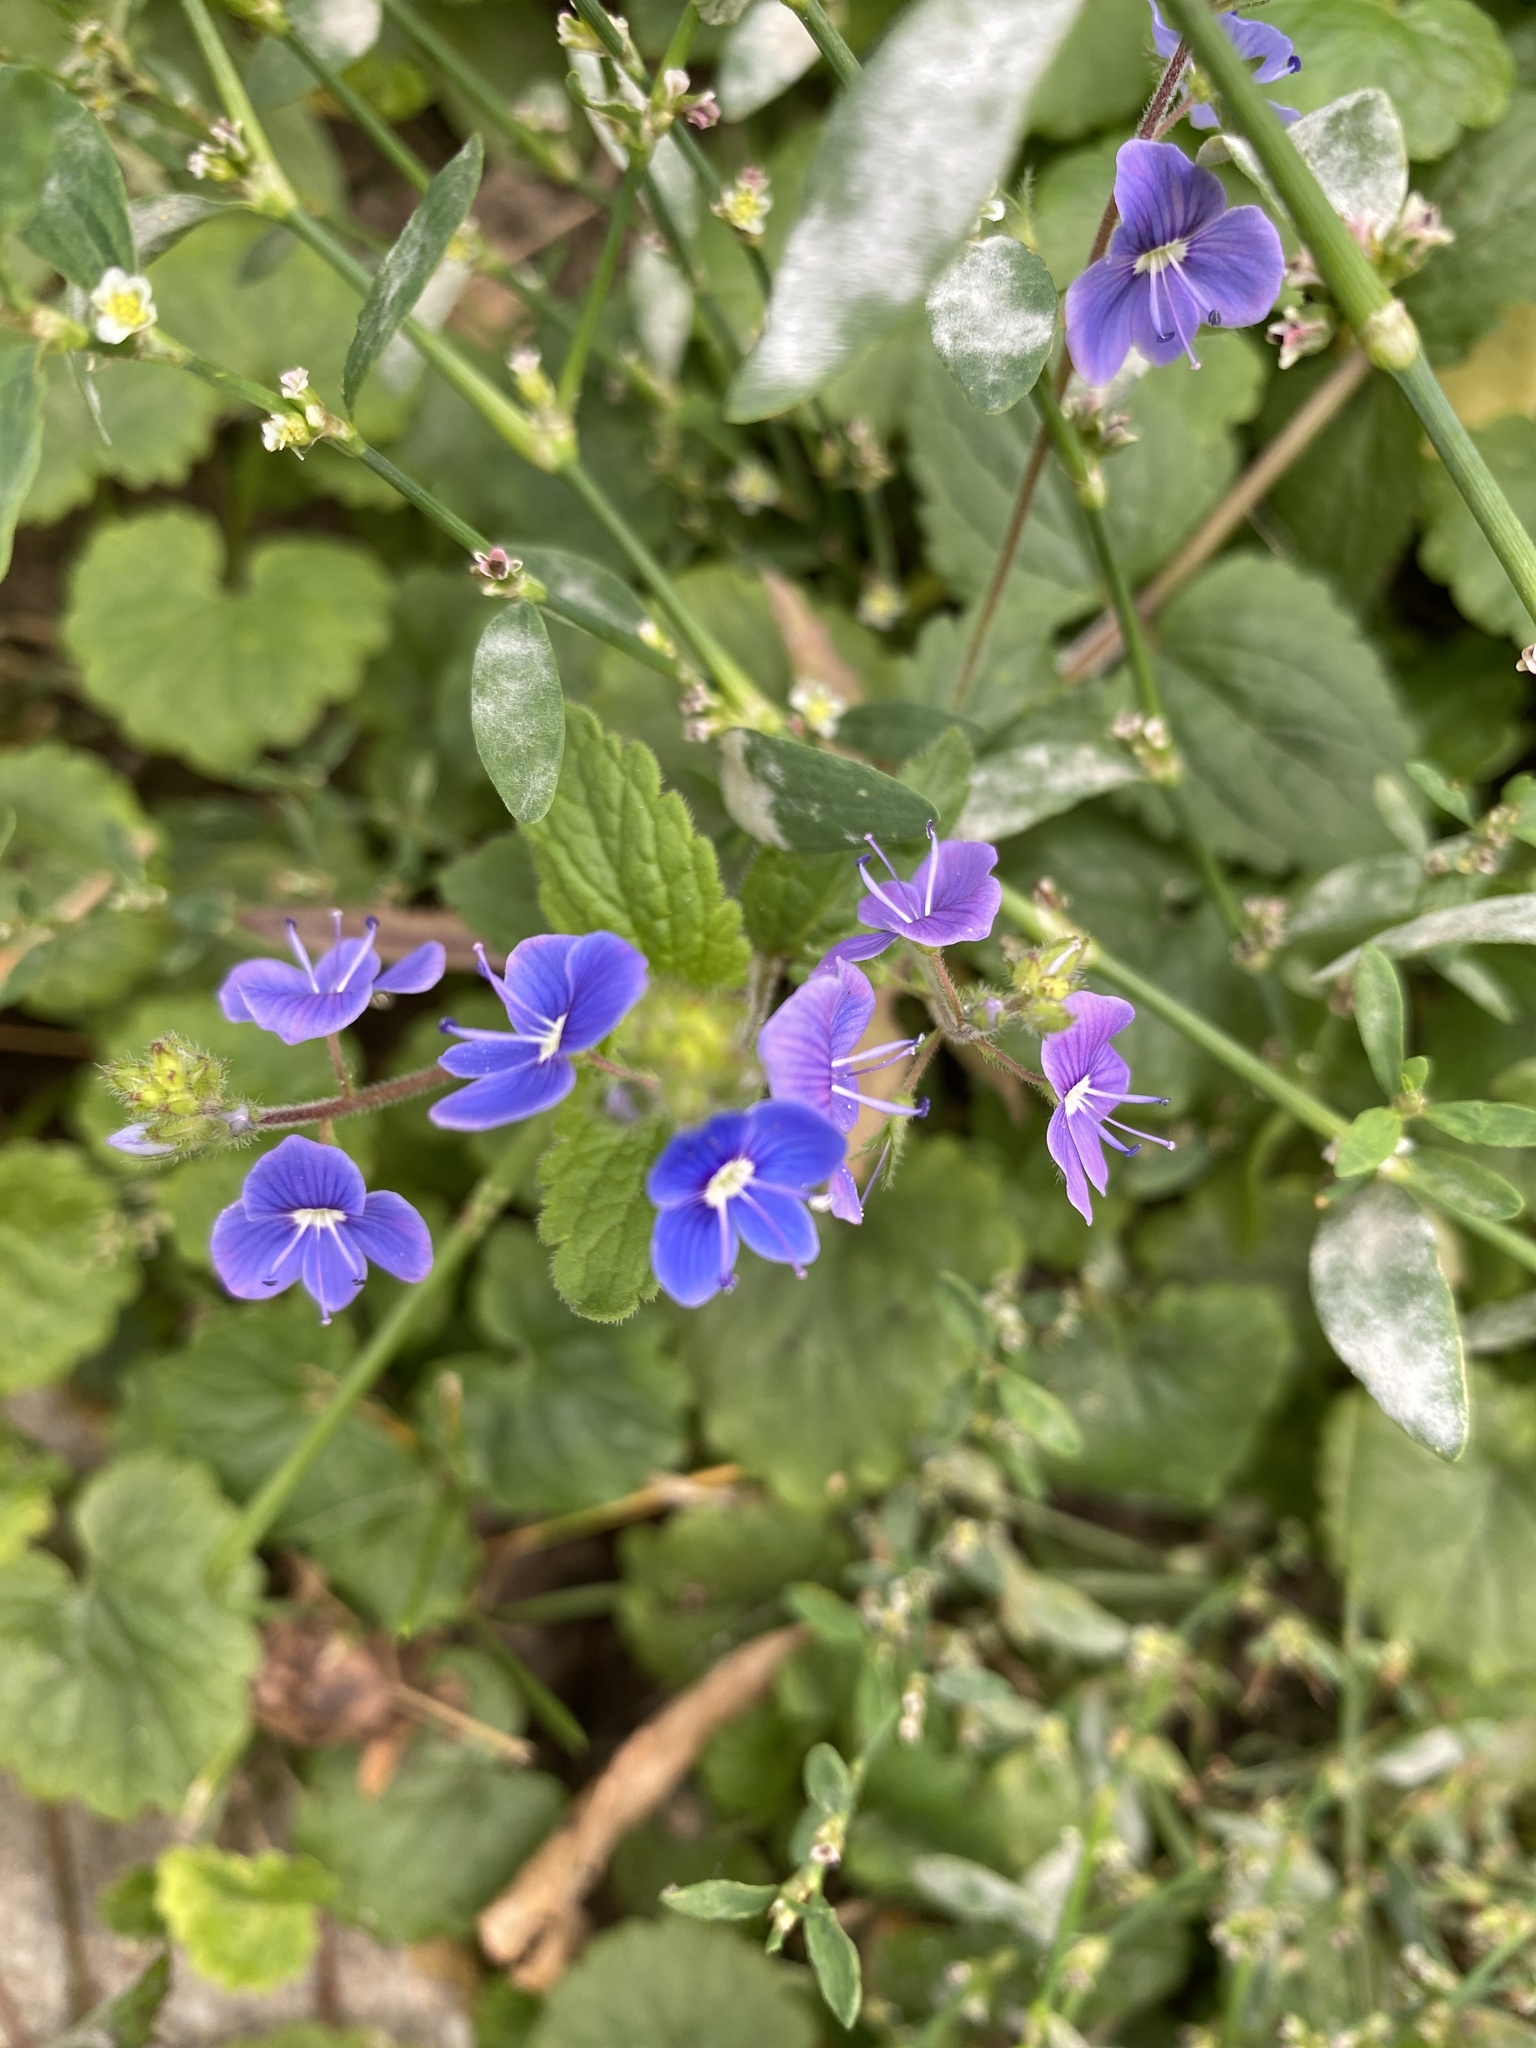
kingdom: Plantae
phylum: Tracheophyta
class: Magnoliopsida
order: Lamiales
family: Plantaginaceae
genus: Veronica
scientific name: Veronica chamaedrys
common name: Germander speedwell
